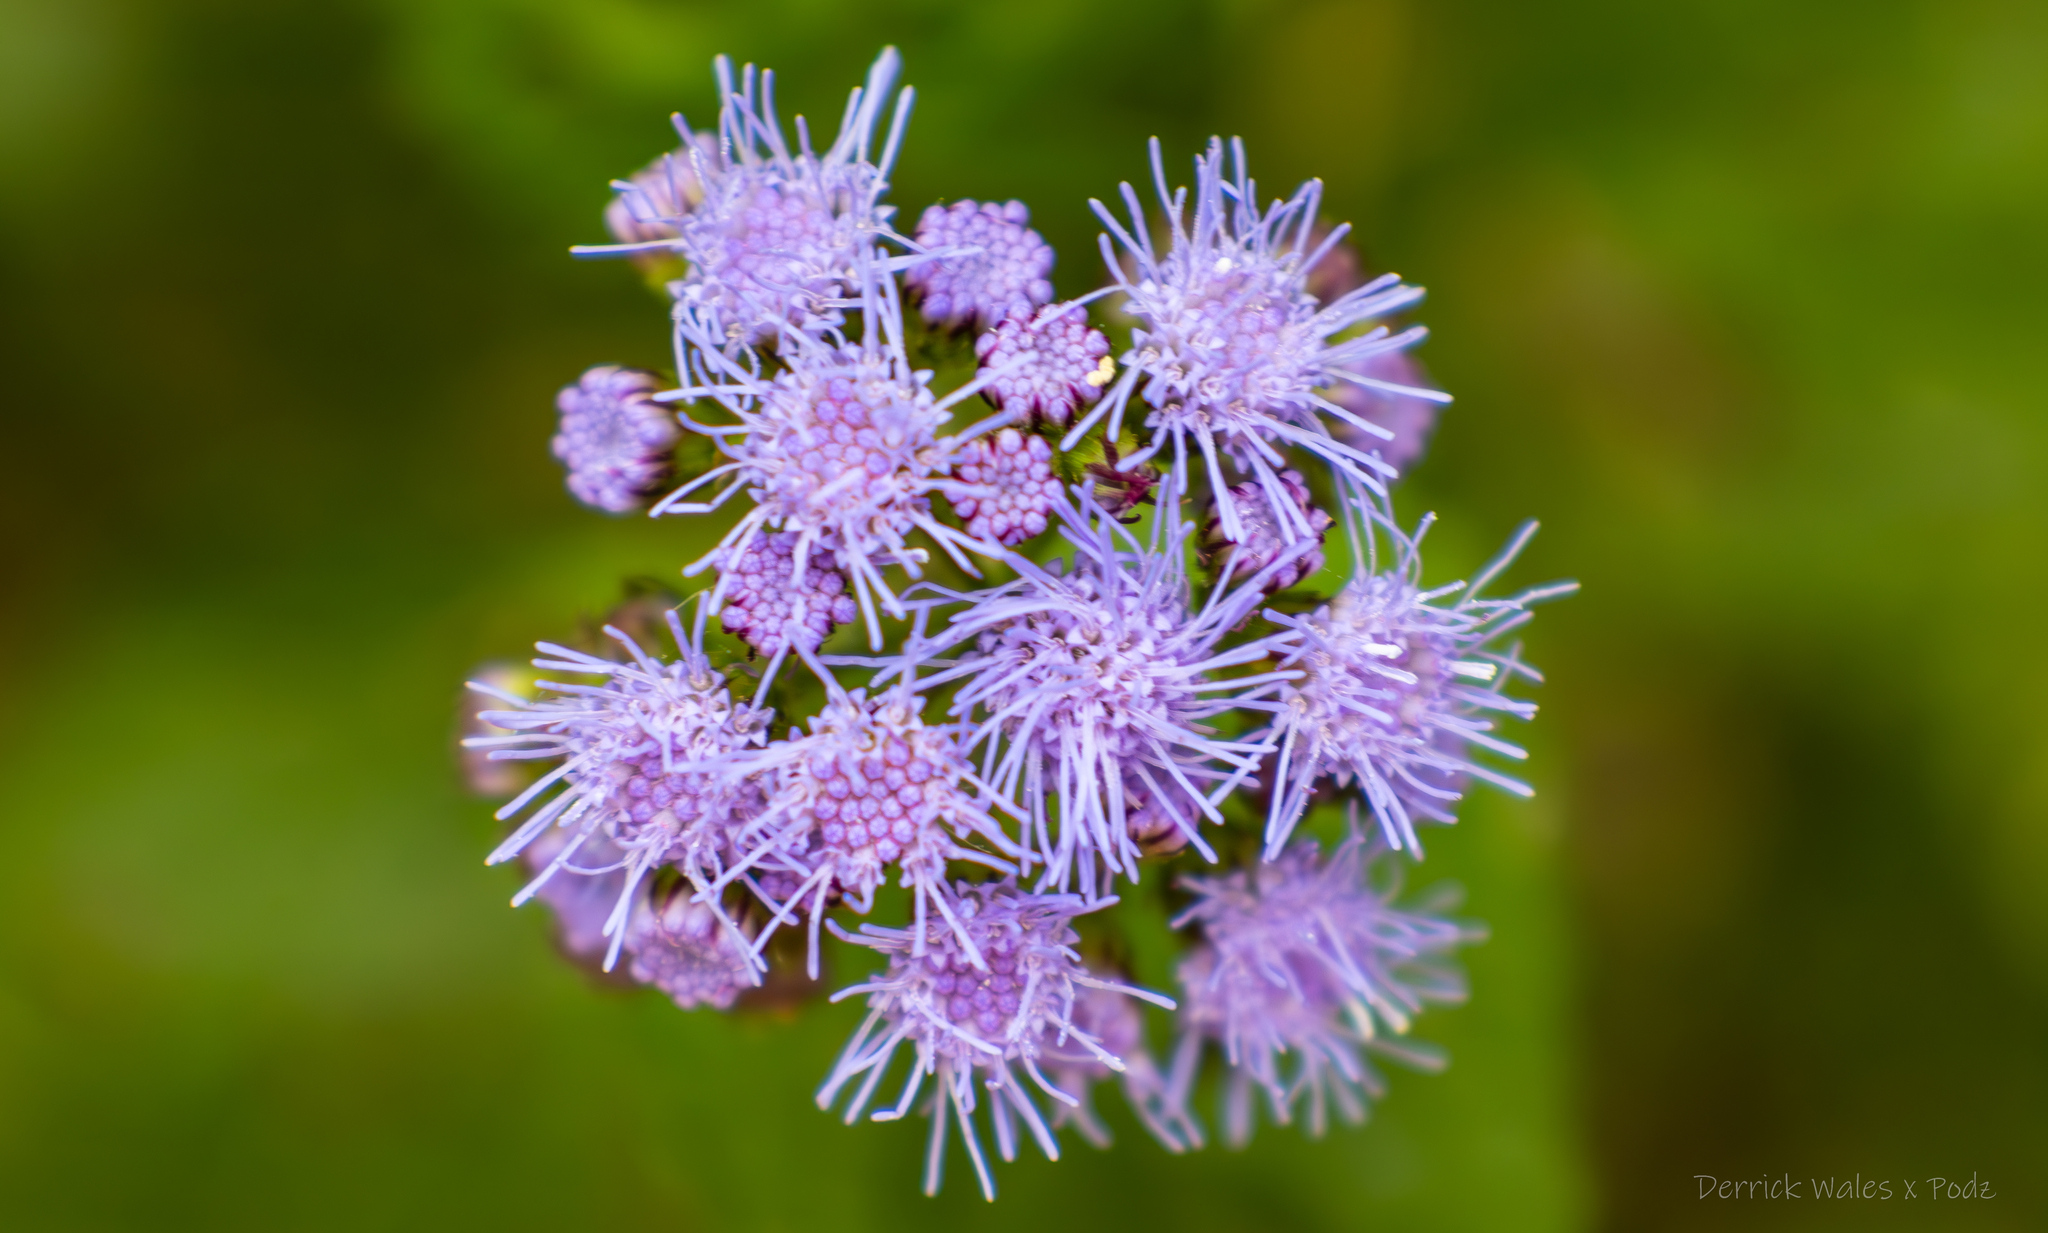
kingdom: Plantae
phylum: Tracheophyta
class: Magnoliopsida
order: Asterales
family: Asteraceae
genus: Conoclinium
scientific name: Conoclinium coelestinum
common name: Blue mistflower
